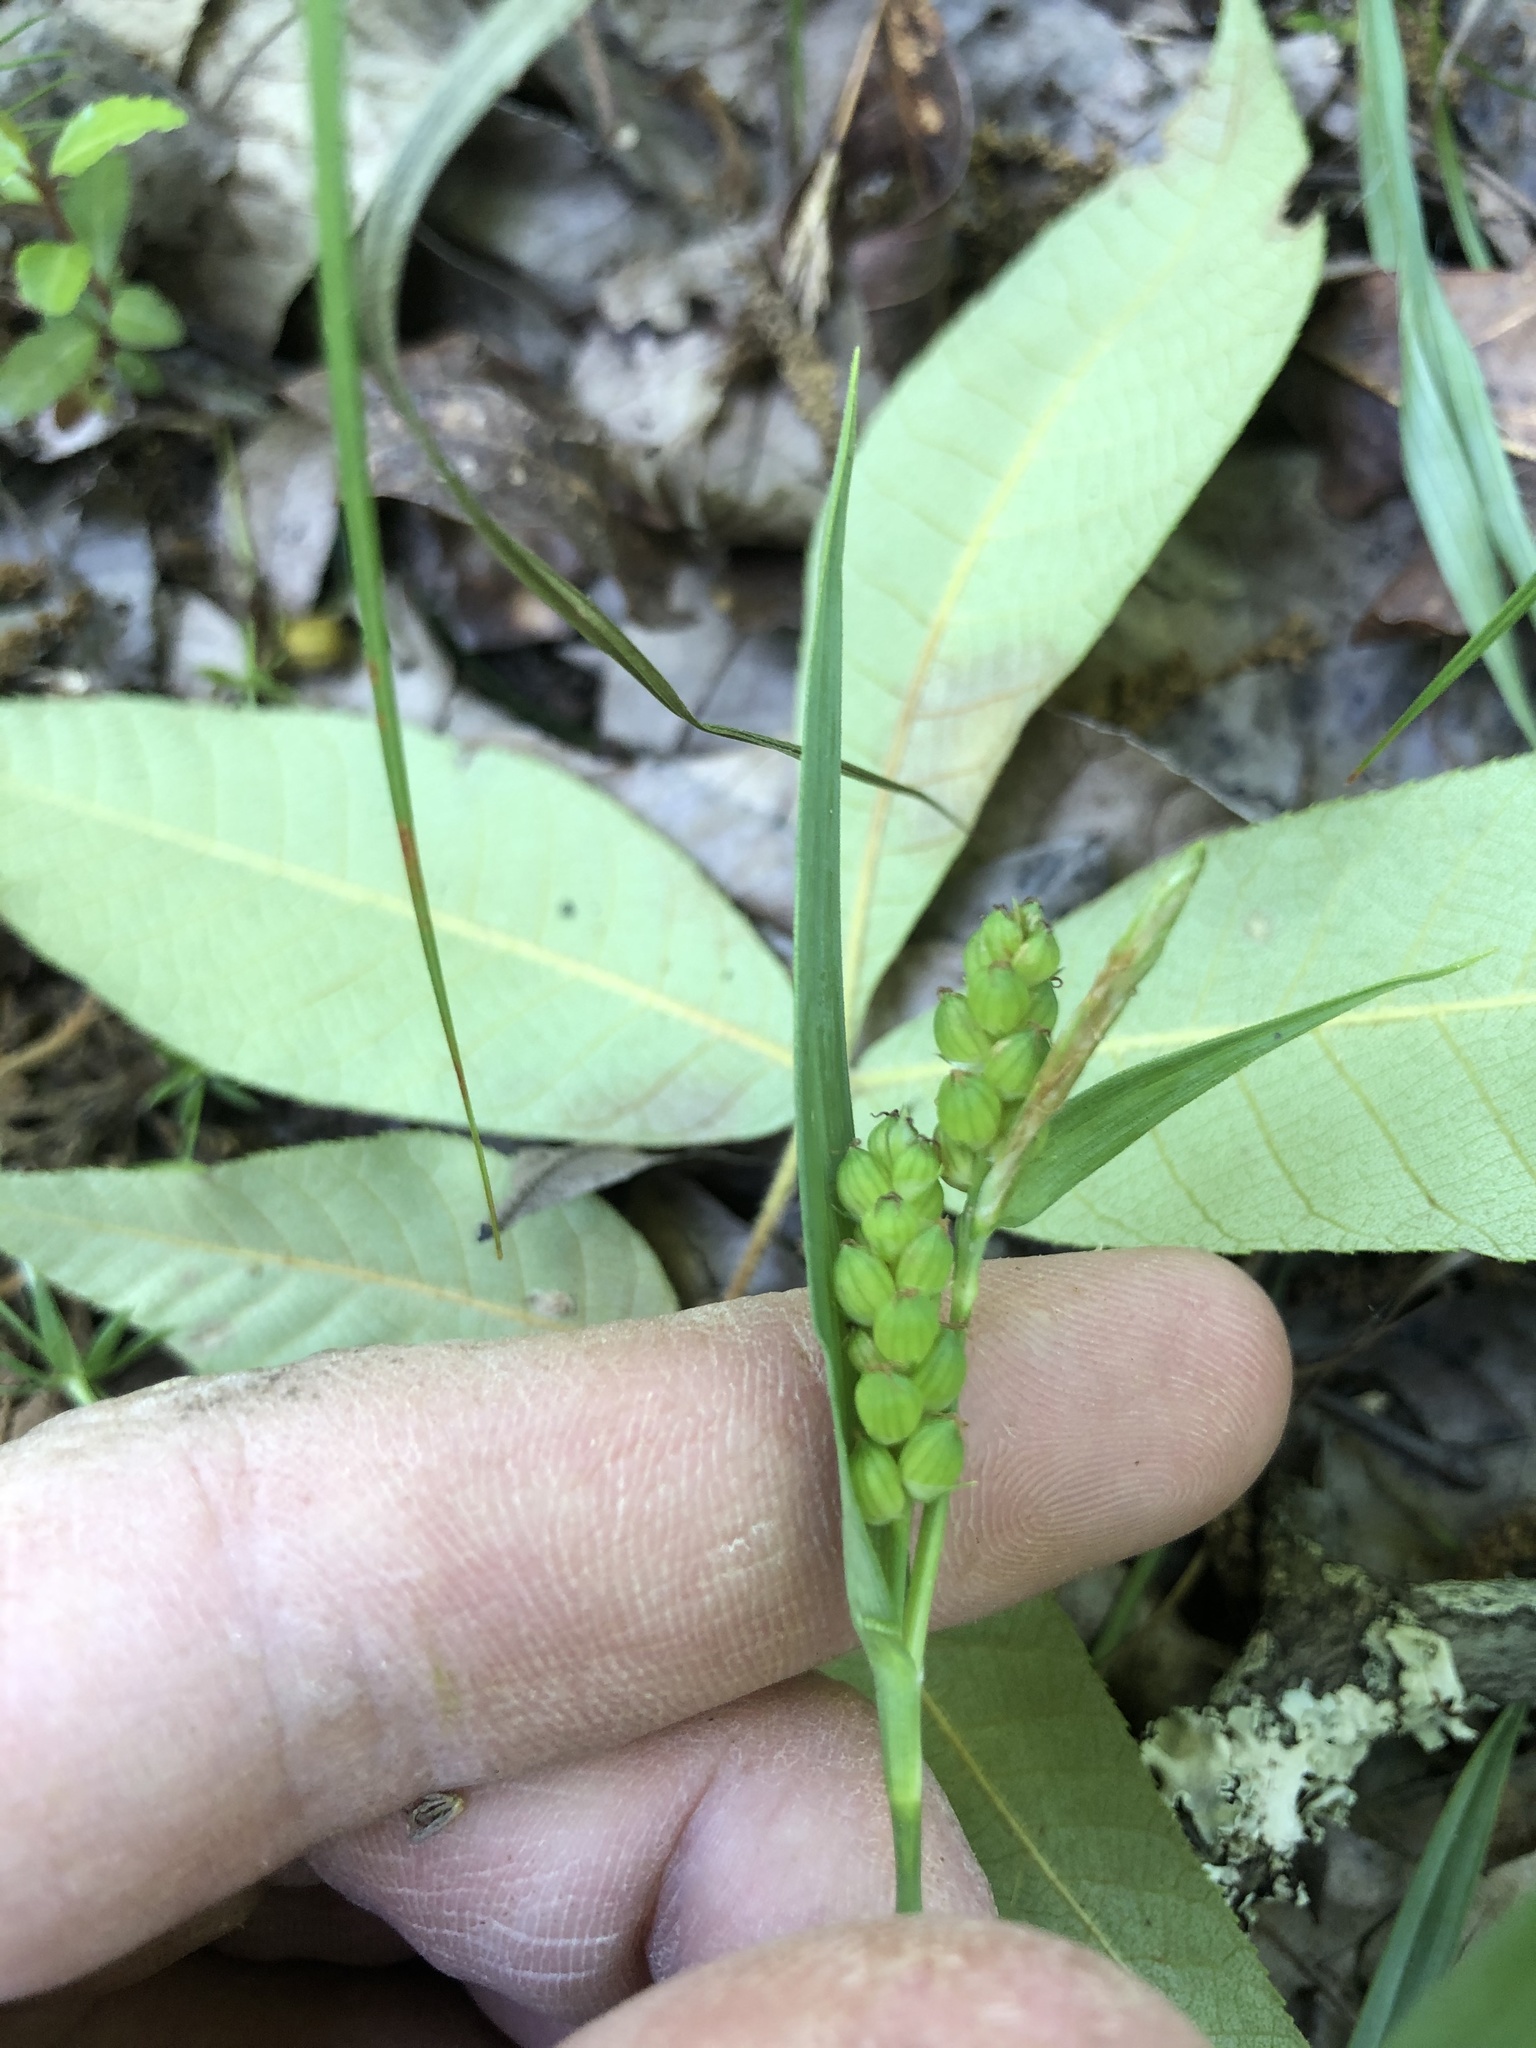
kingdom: Plantae
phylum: Tracheophyta
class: Liliopsida
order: Poales
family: Cyperaceae
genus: Carex
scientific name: Carex glaucodea
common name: Blue sedge
